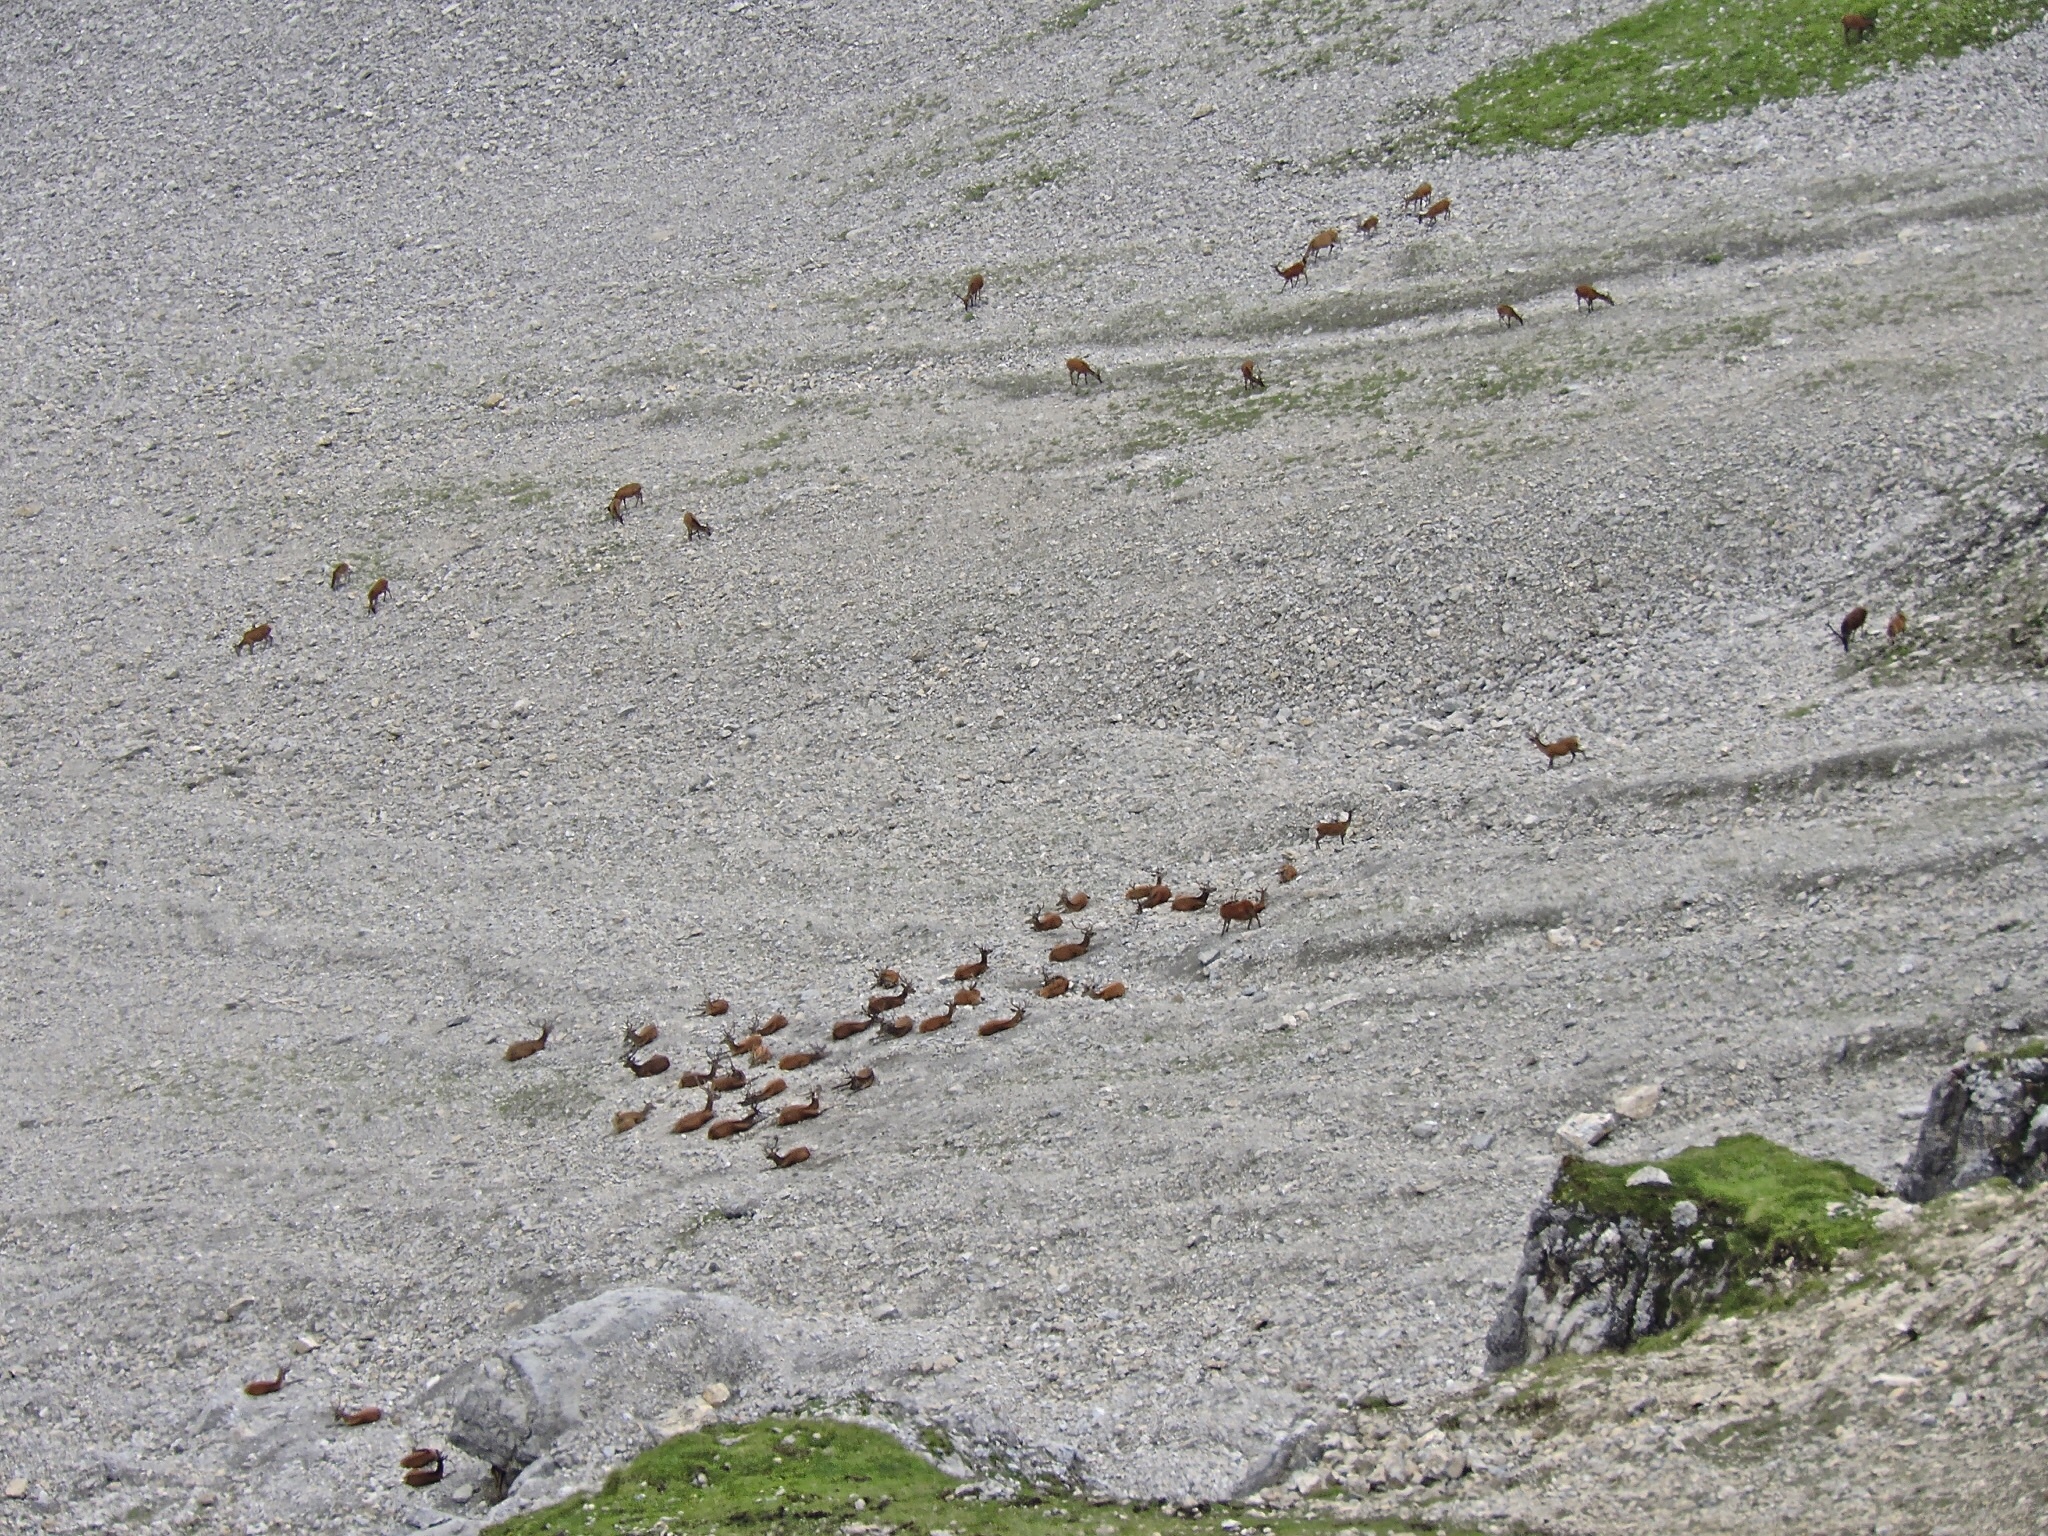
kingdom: Animalia
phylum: Chordata
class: Mammalia
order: Artiodactyla
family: Cervidae
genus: Cervus
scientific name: Cervus elaphus
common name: Red deer
